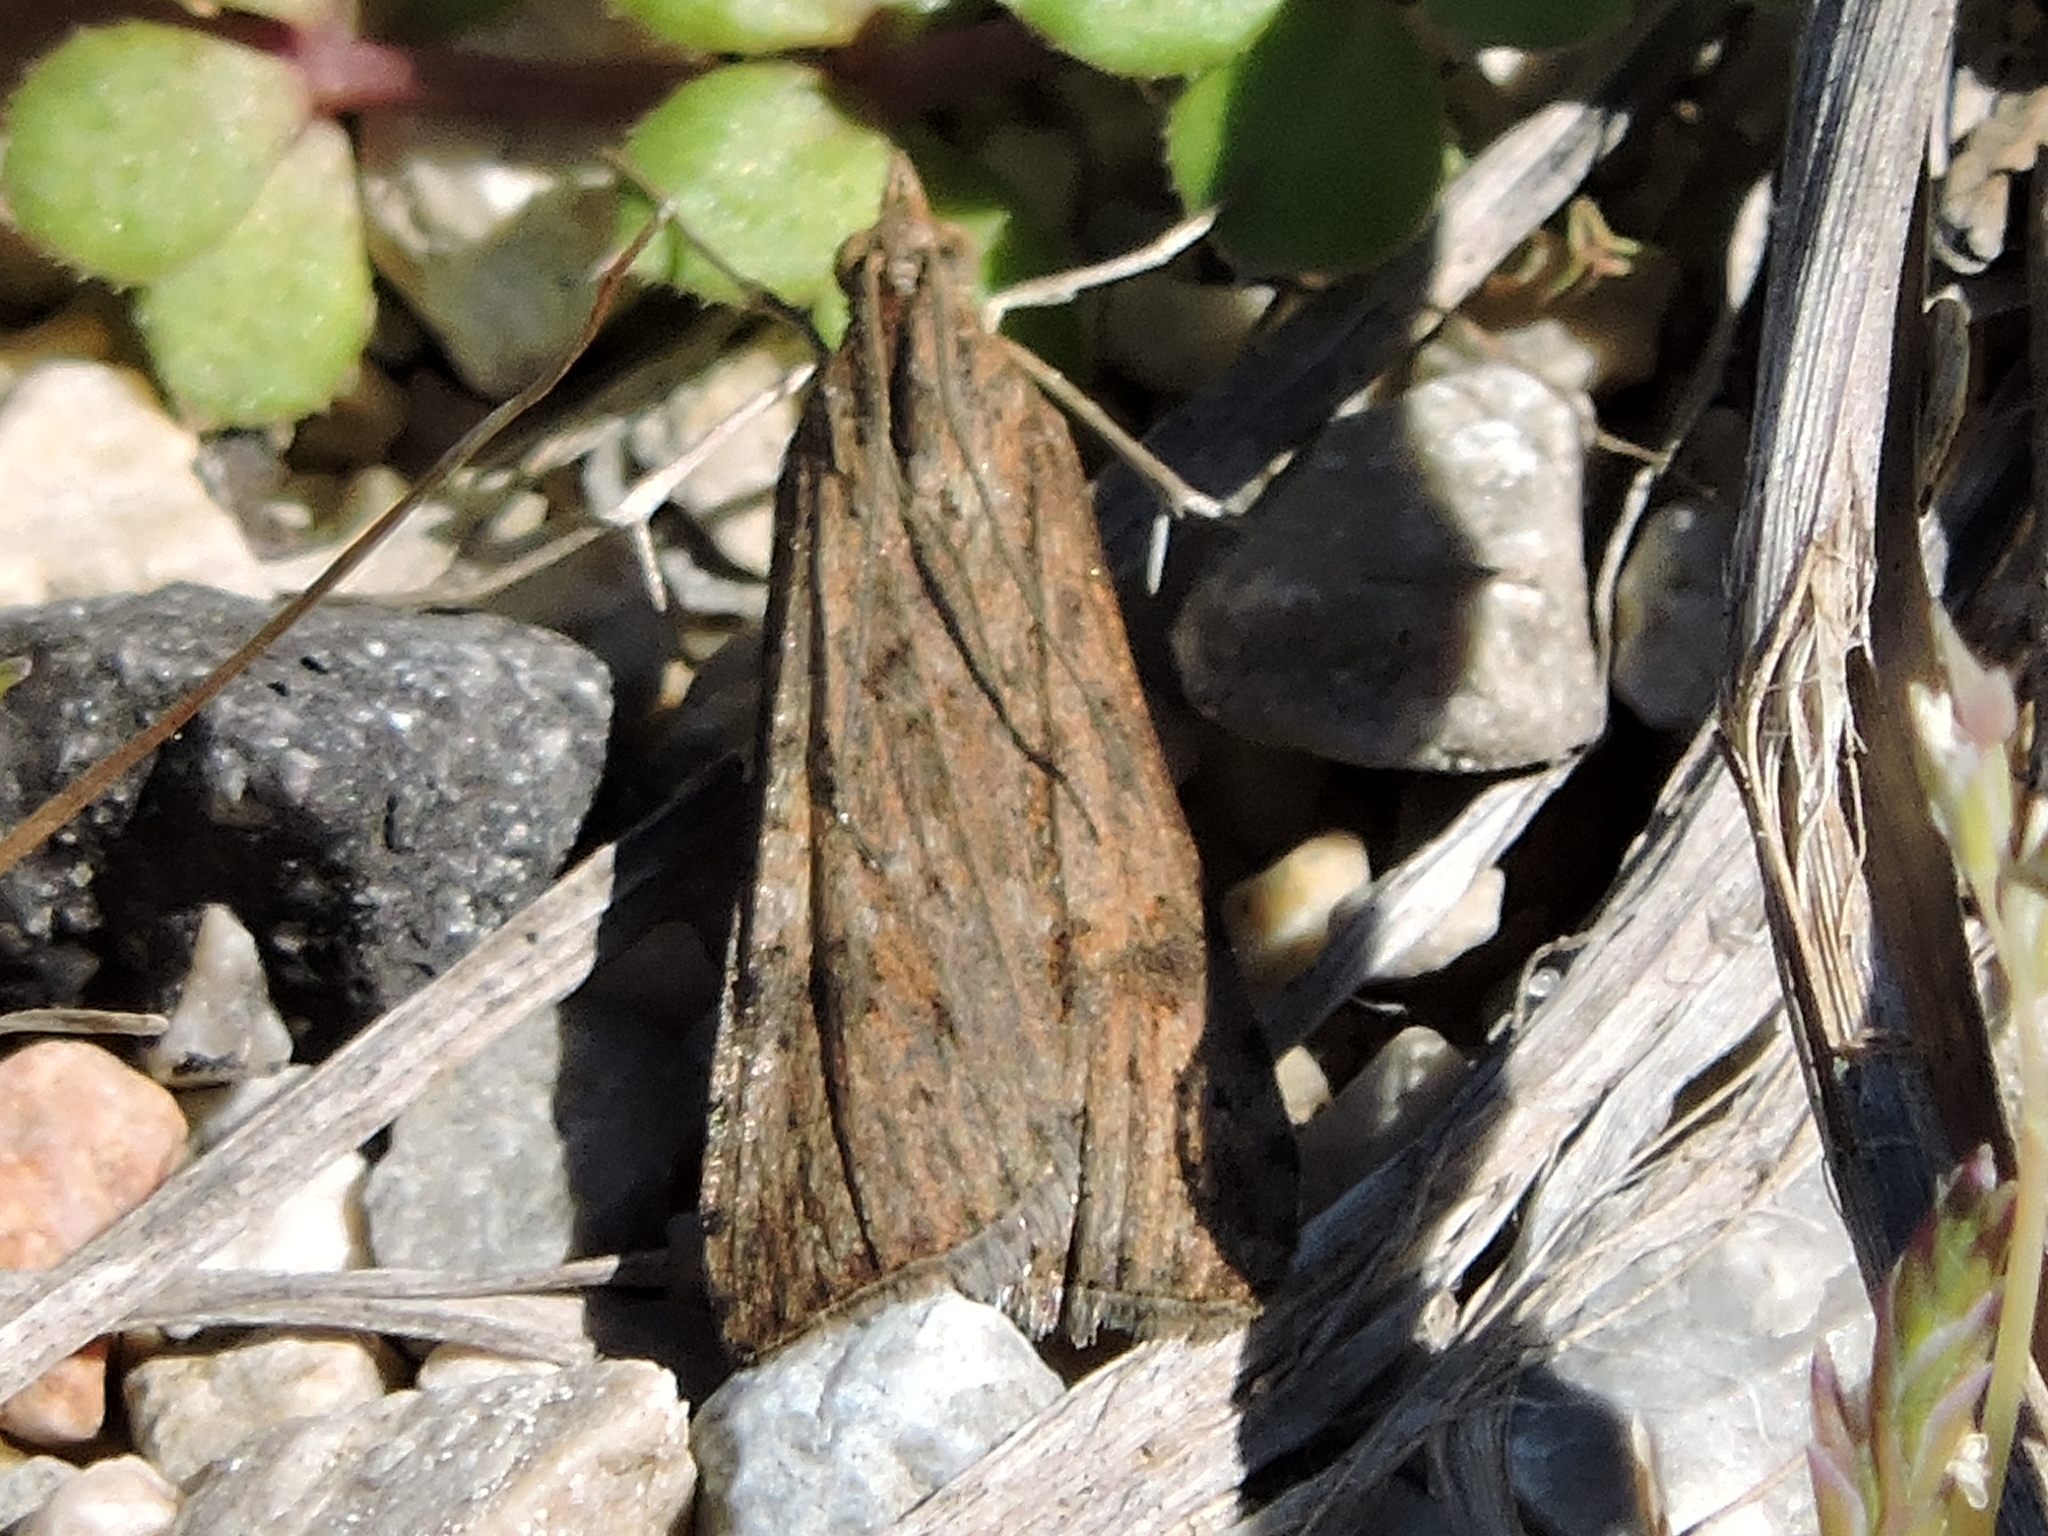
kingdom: Animalia
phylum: Arthropoda
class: Insecta
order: Lepidoptera
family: Crambidae
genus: Nomophila
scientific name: Nomophila nearctica
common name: American rush veneer
